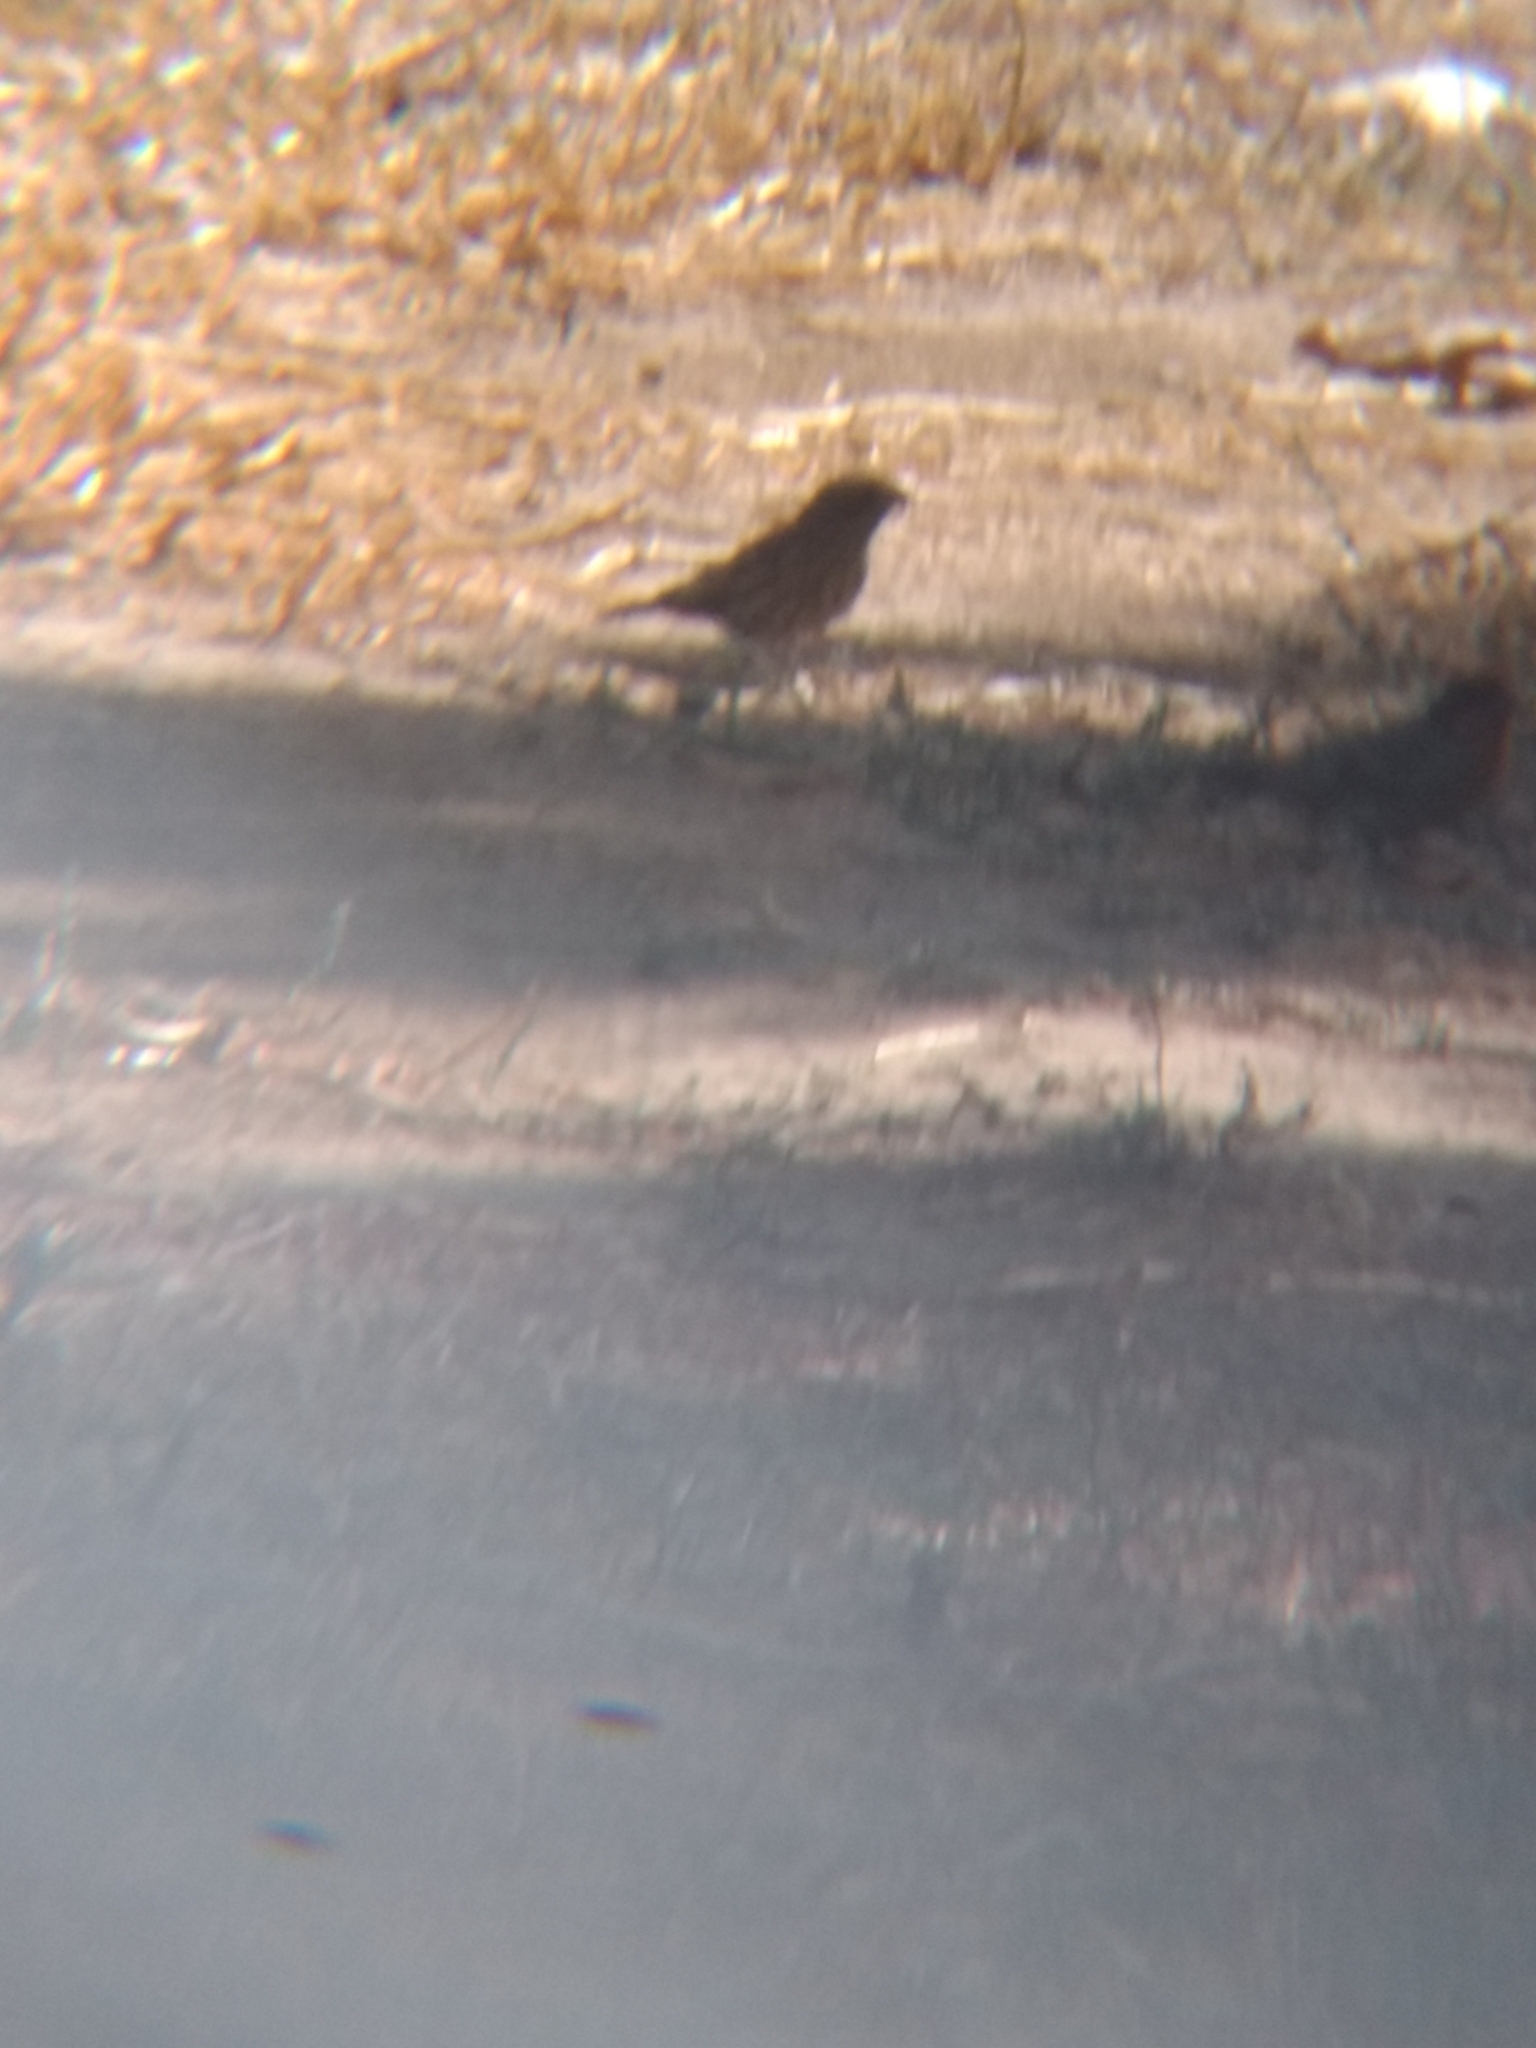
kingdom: Animalia
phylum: Chordata
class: Aves
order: Passeriformes
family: Fringillidae
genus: Haemorhous
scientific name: Haemorhous mexicanus
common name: House finch
